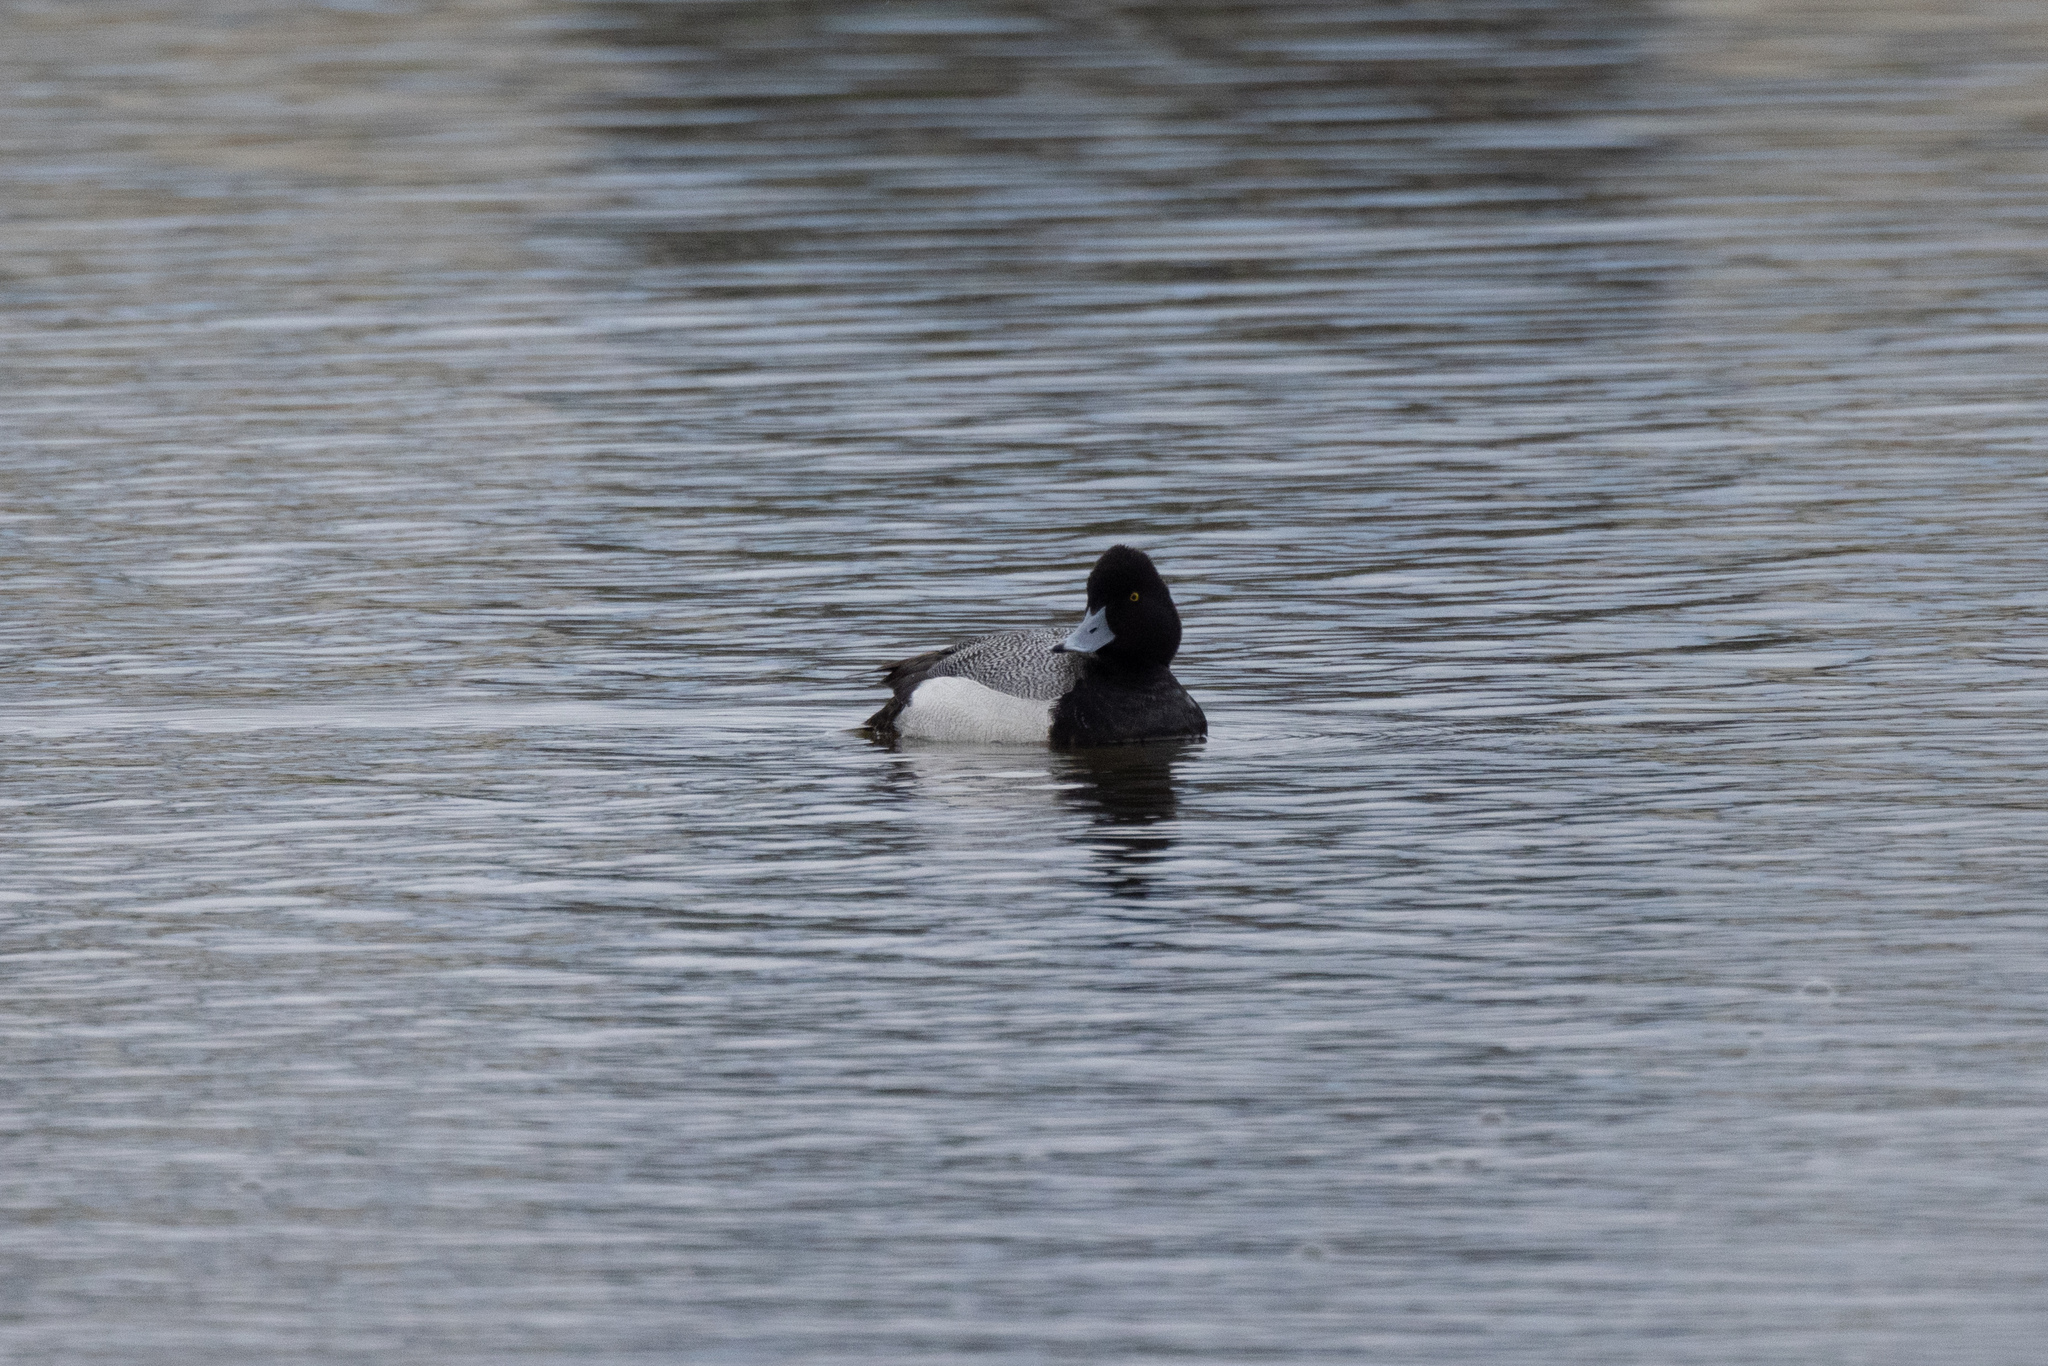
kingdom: Animalia
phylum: Chordata
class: Aves
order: Anseriformes
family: Anatidae
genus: Aythya
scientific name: Aythya affinis
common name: Lesser scaup
